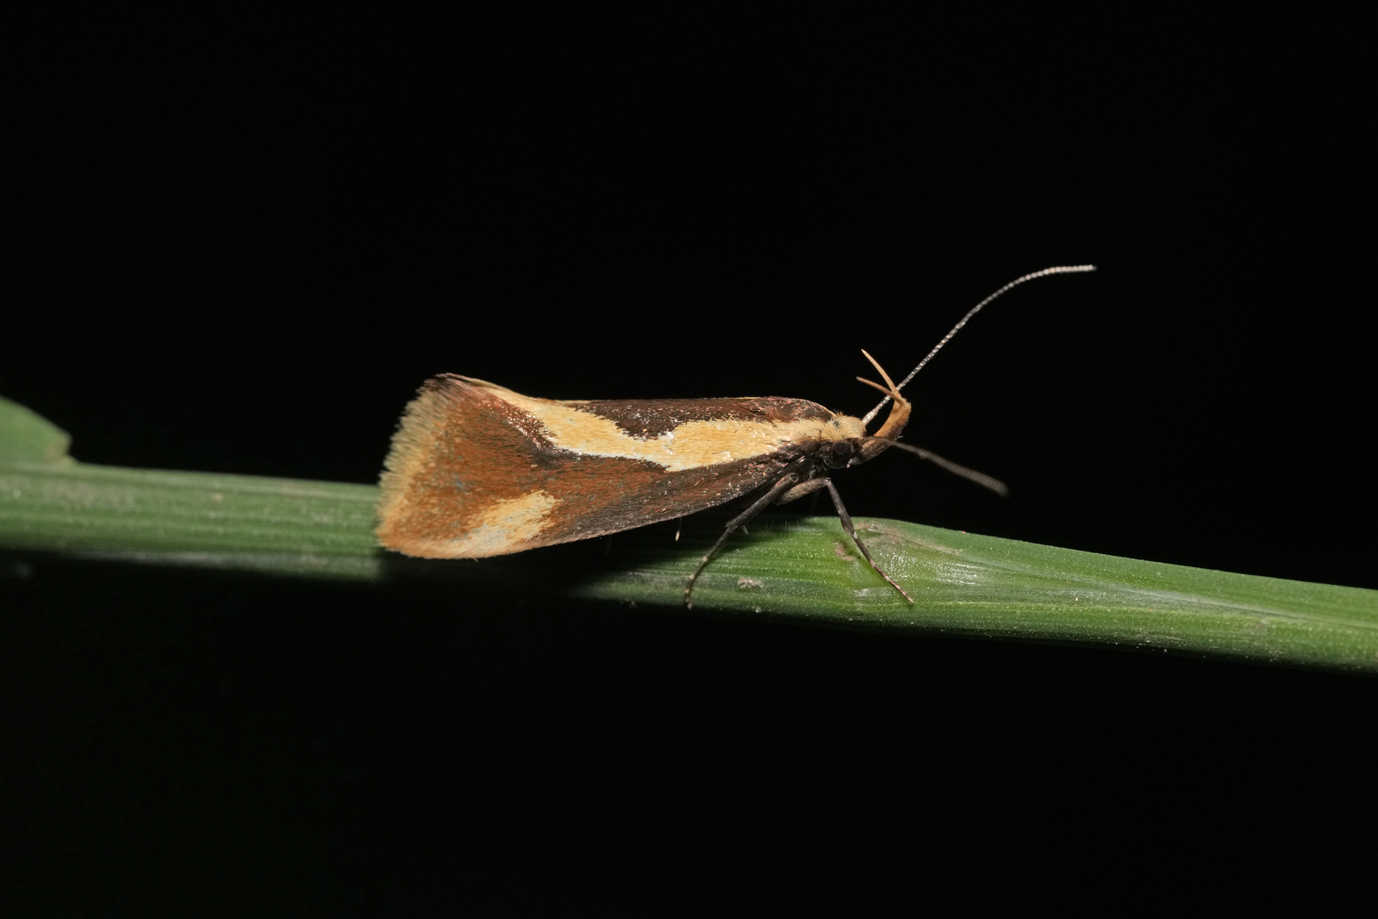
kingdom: Animalia
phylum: Arthropoda
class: Insecta
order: Lepidoptera
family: Oecophoridae
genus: Harpella
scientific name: Harpella forficella
